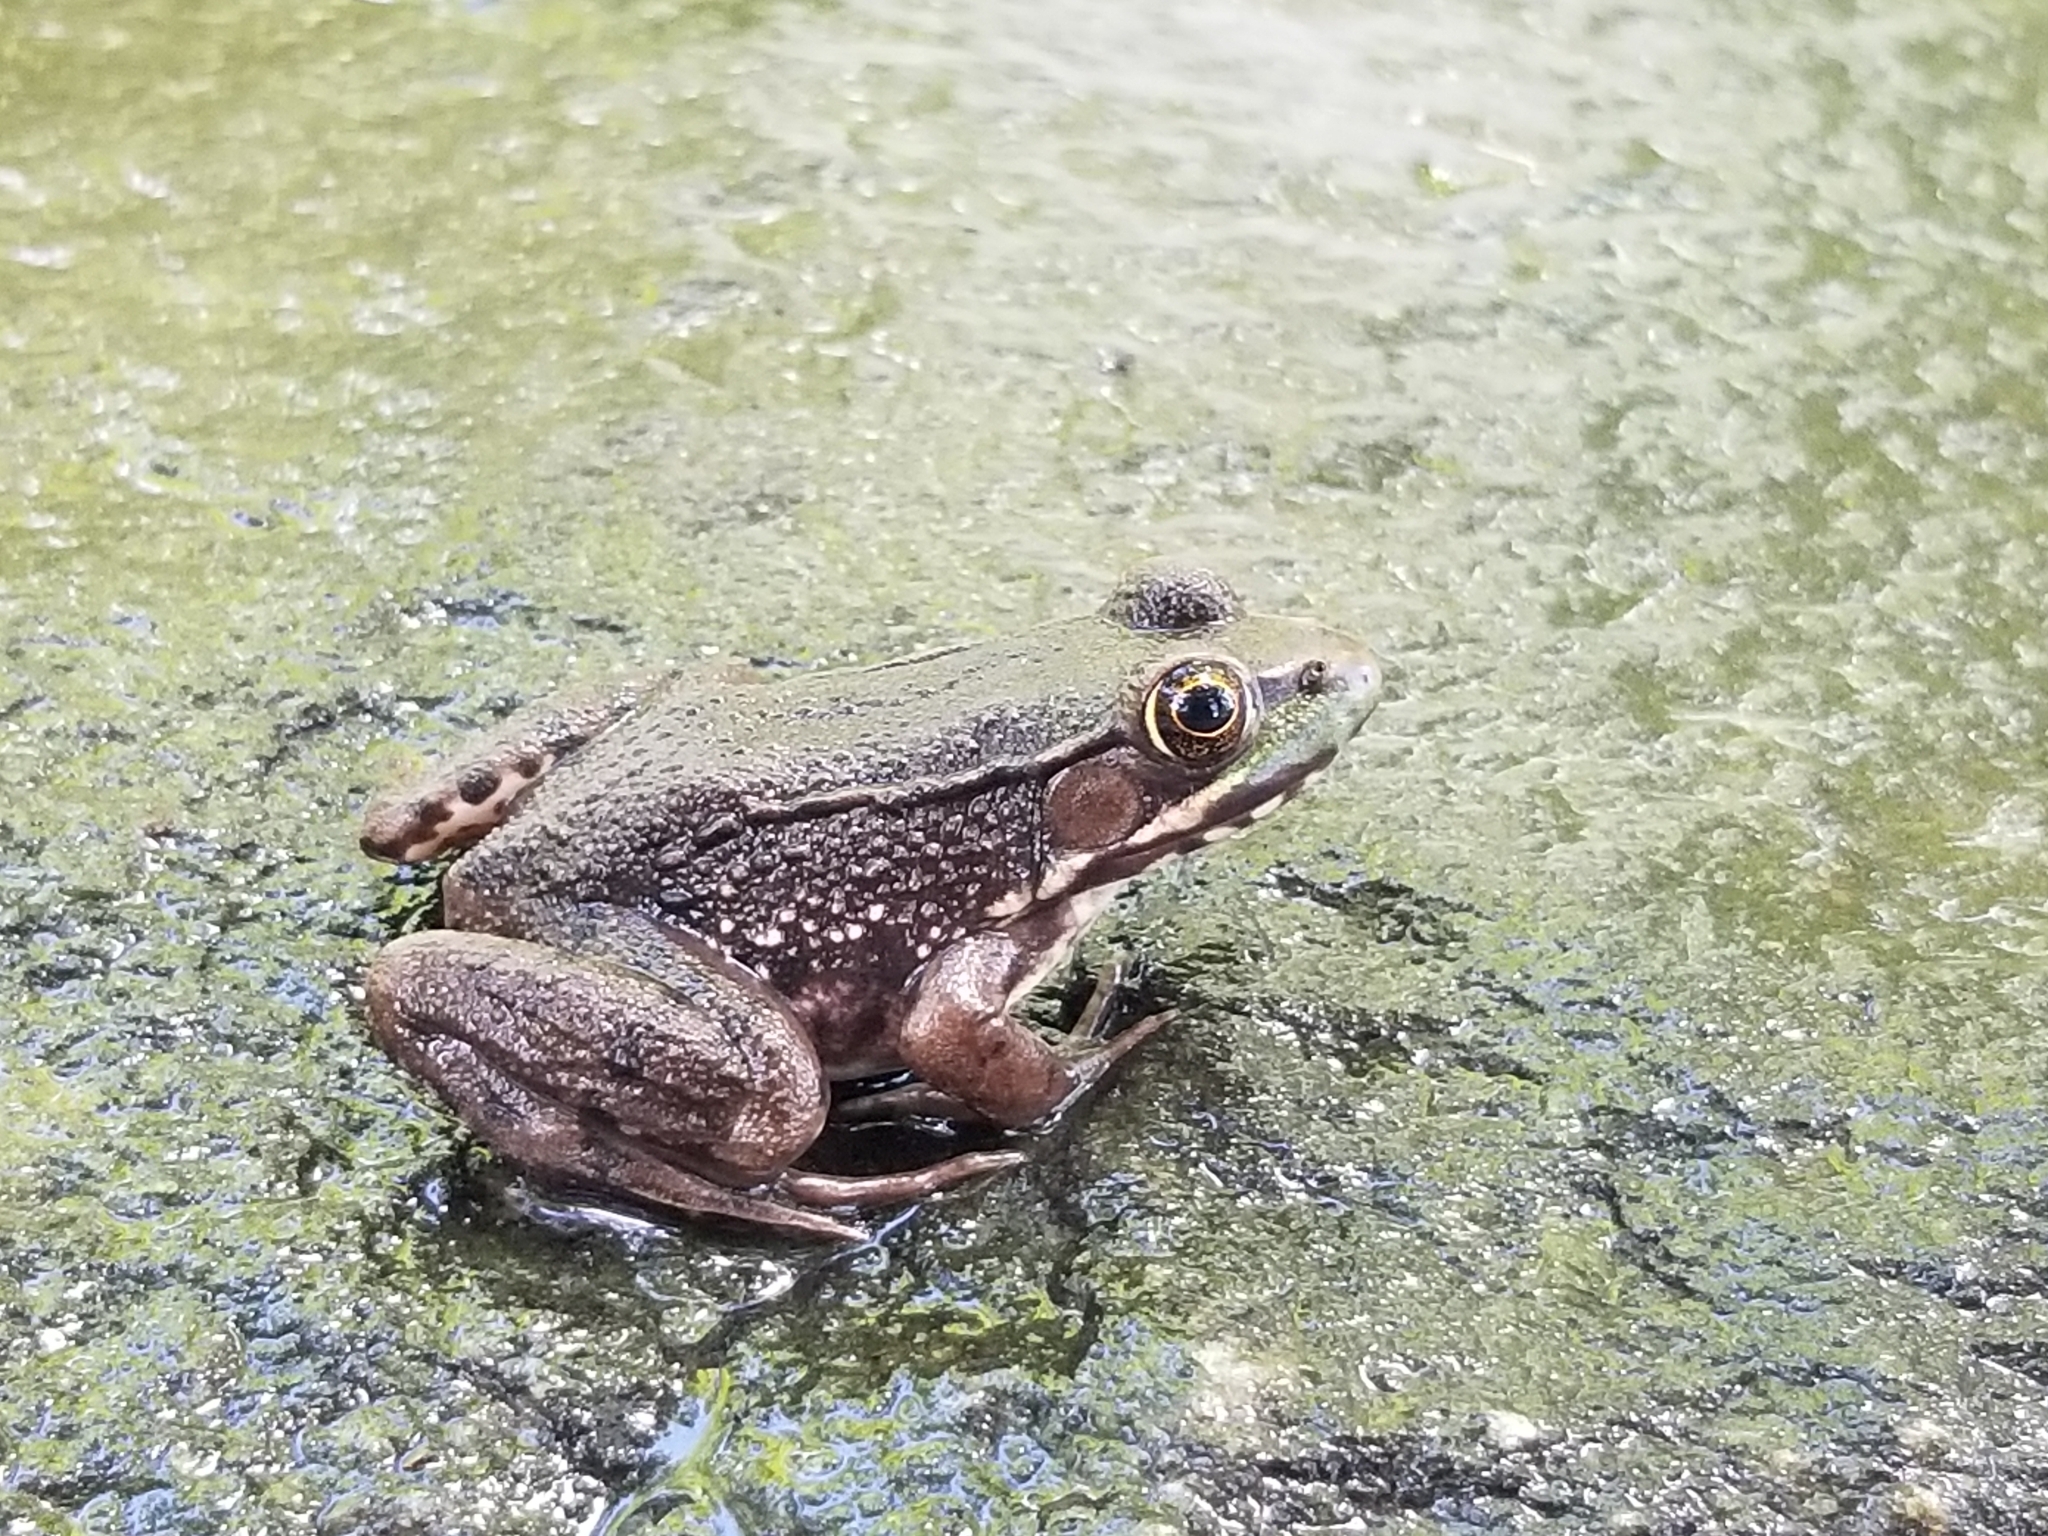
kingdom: Animalia
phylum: Chordata
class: Amphibia
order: Anura
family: Ranidae
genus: Lithobates
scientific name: Lithobates clamitans
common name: Green frog
